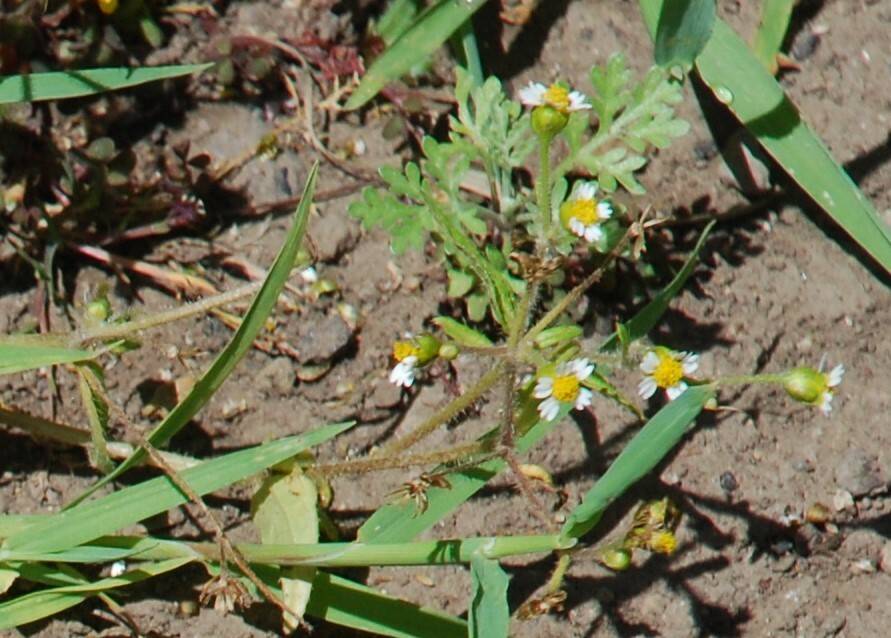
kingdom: Plantae
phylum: Tracheophyta
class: Magnoliopsida
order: Asterales
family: Asteraceae
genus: Galinsoga
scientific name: Galinsoga quadriradiata
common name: Shaggy soldier
